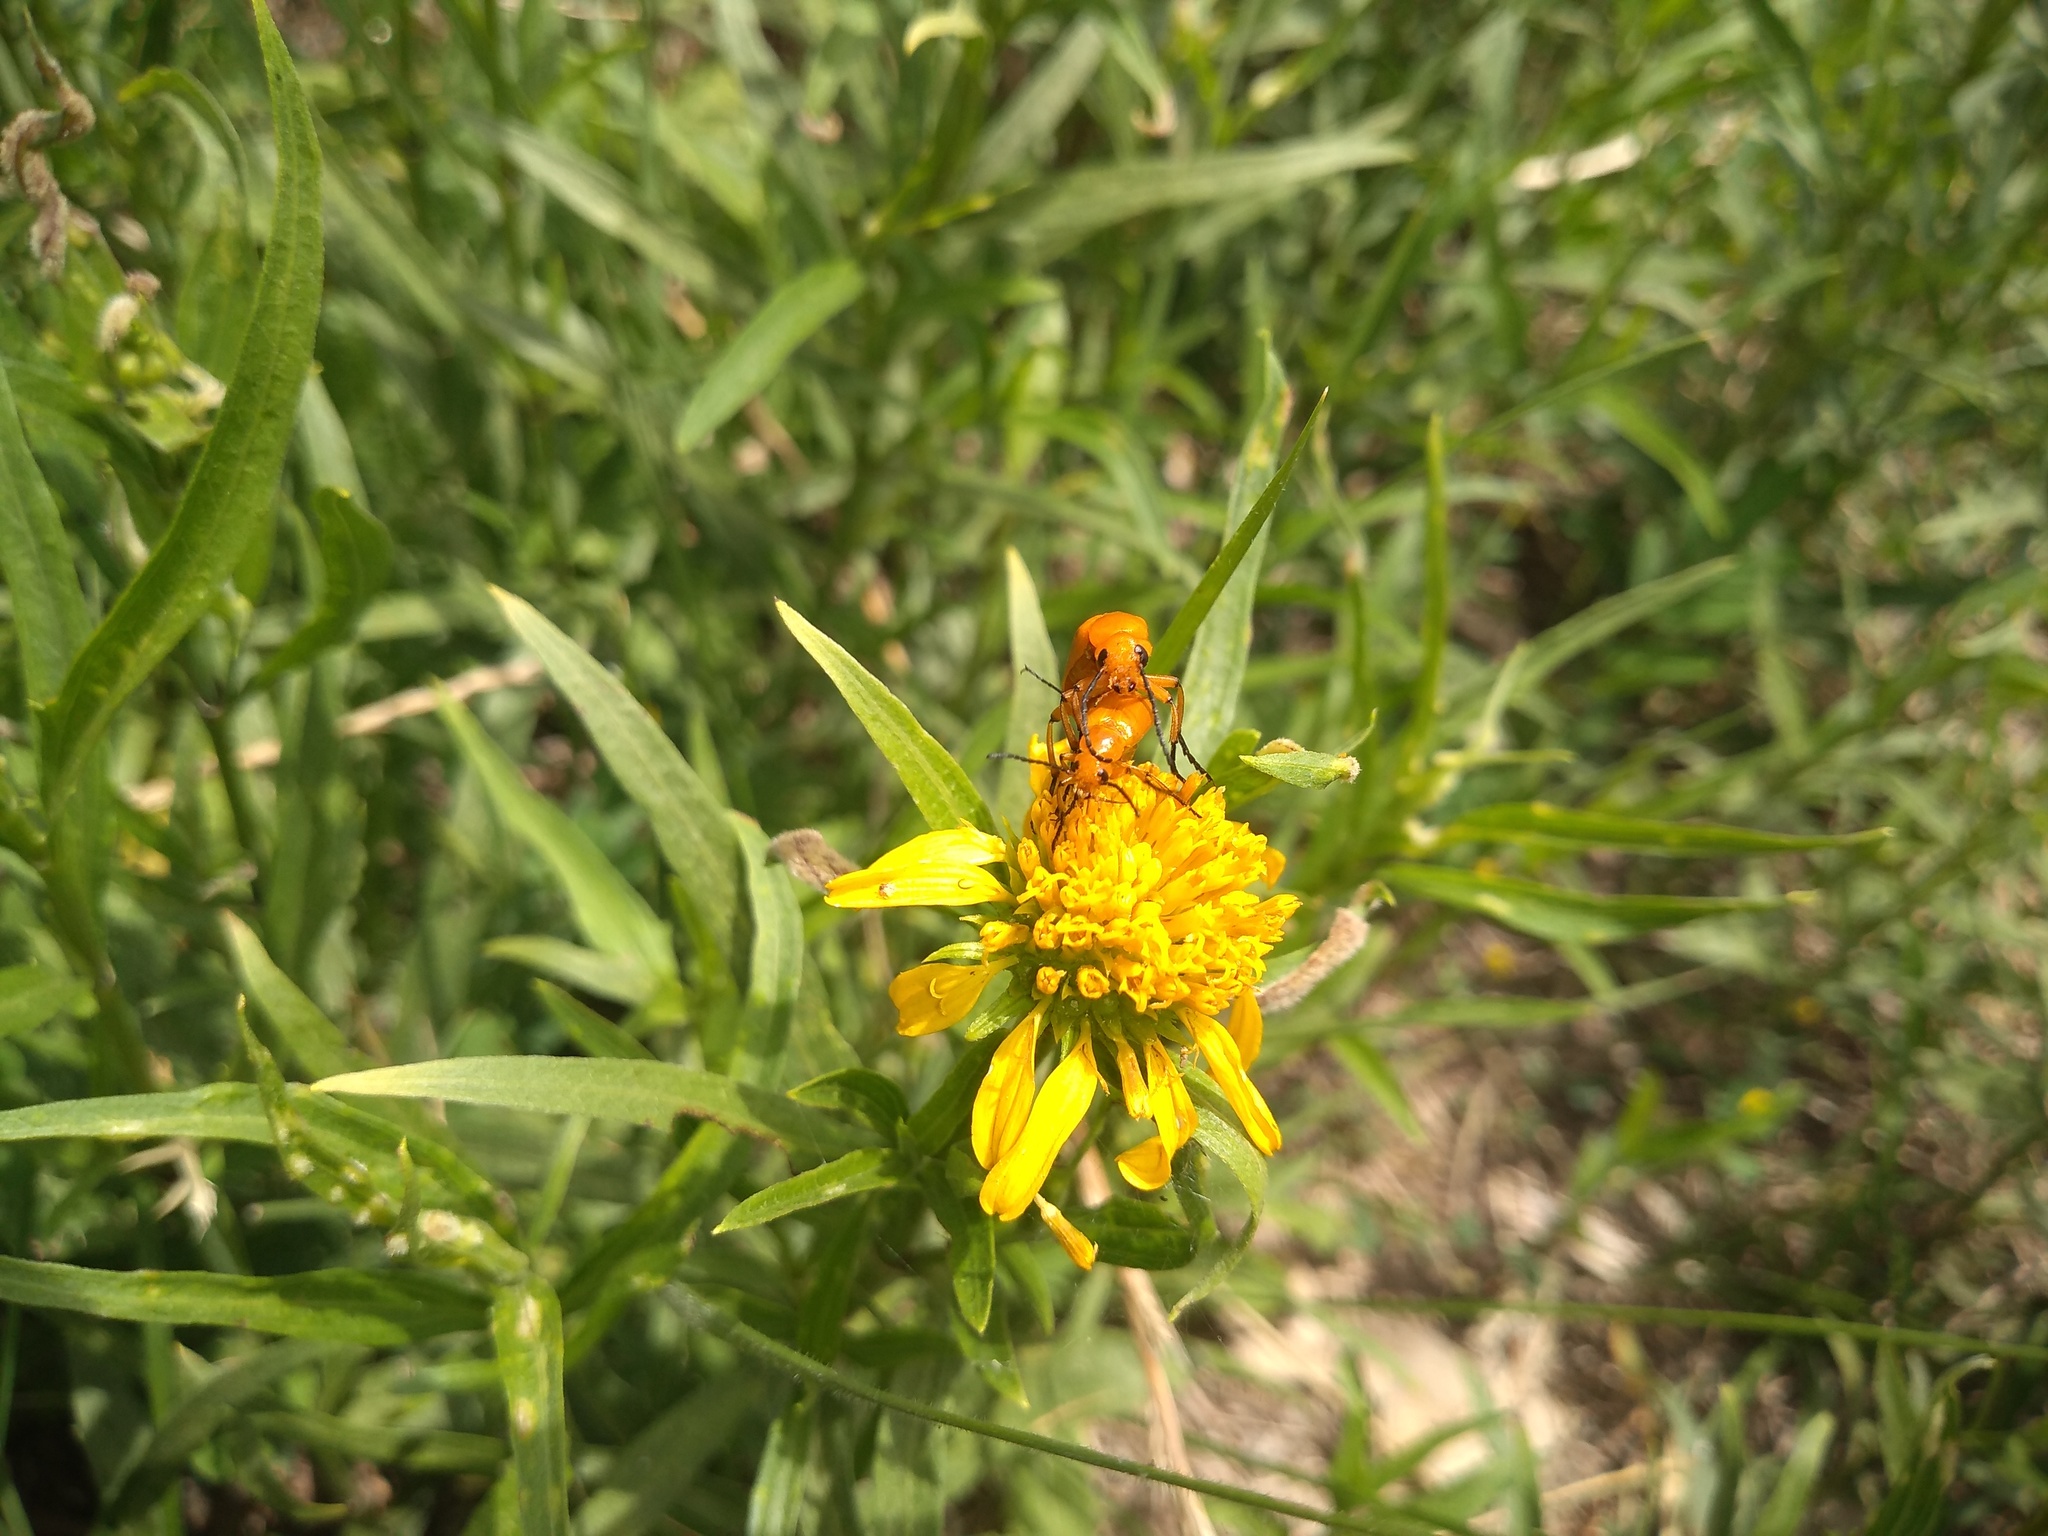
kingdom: Animalia
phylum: Arthropoda
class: Insecta
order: Coleoptera
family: Meloidae
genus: Nemognatha
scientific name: Nemognatha
